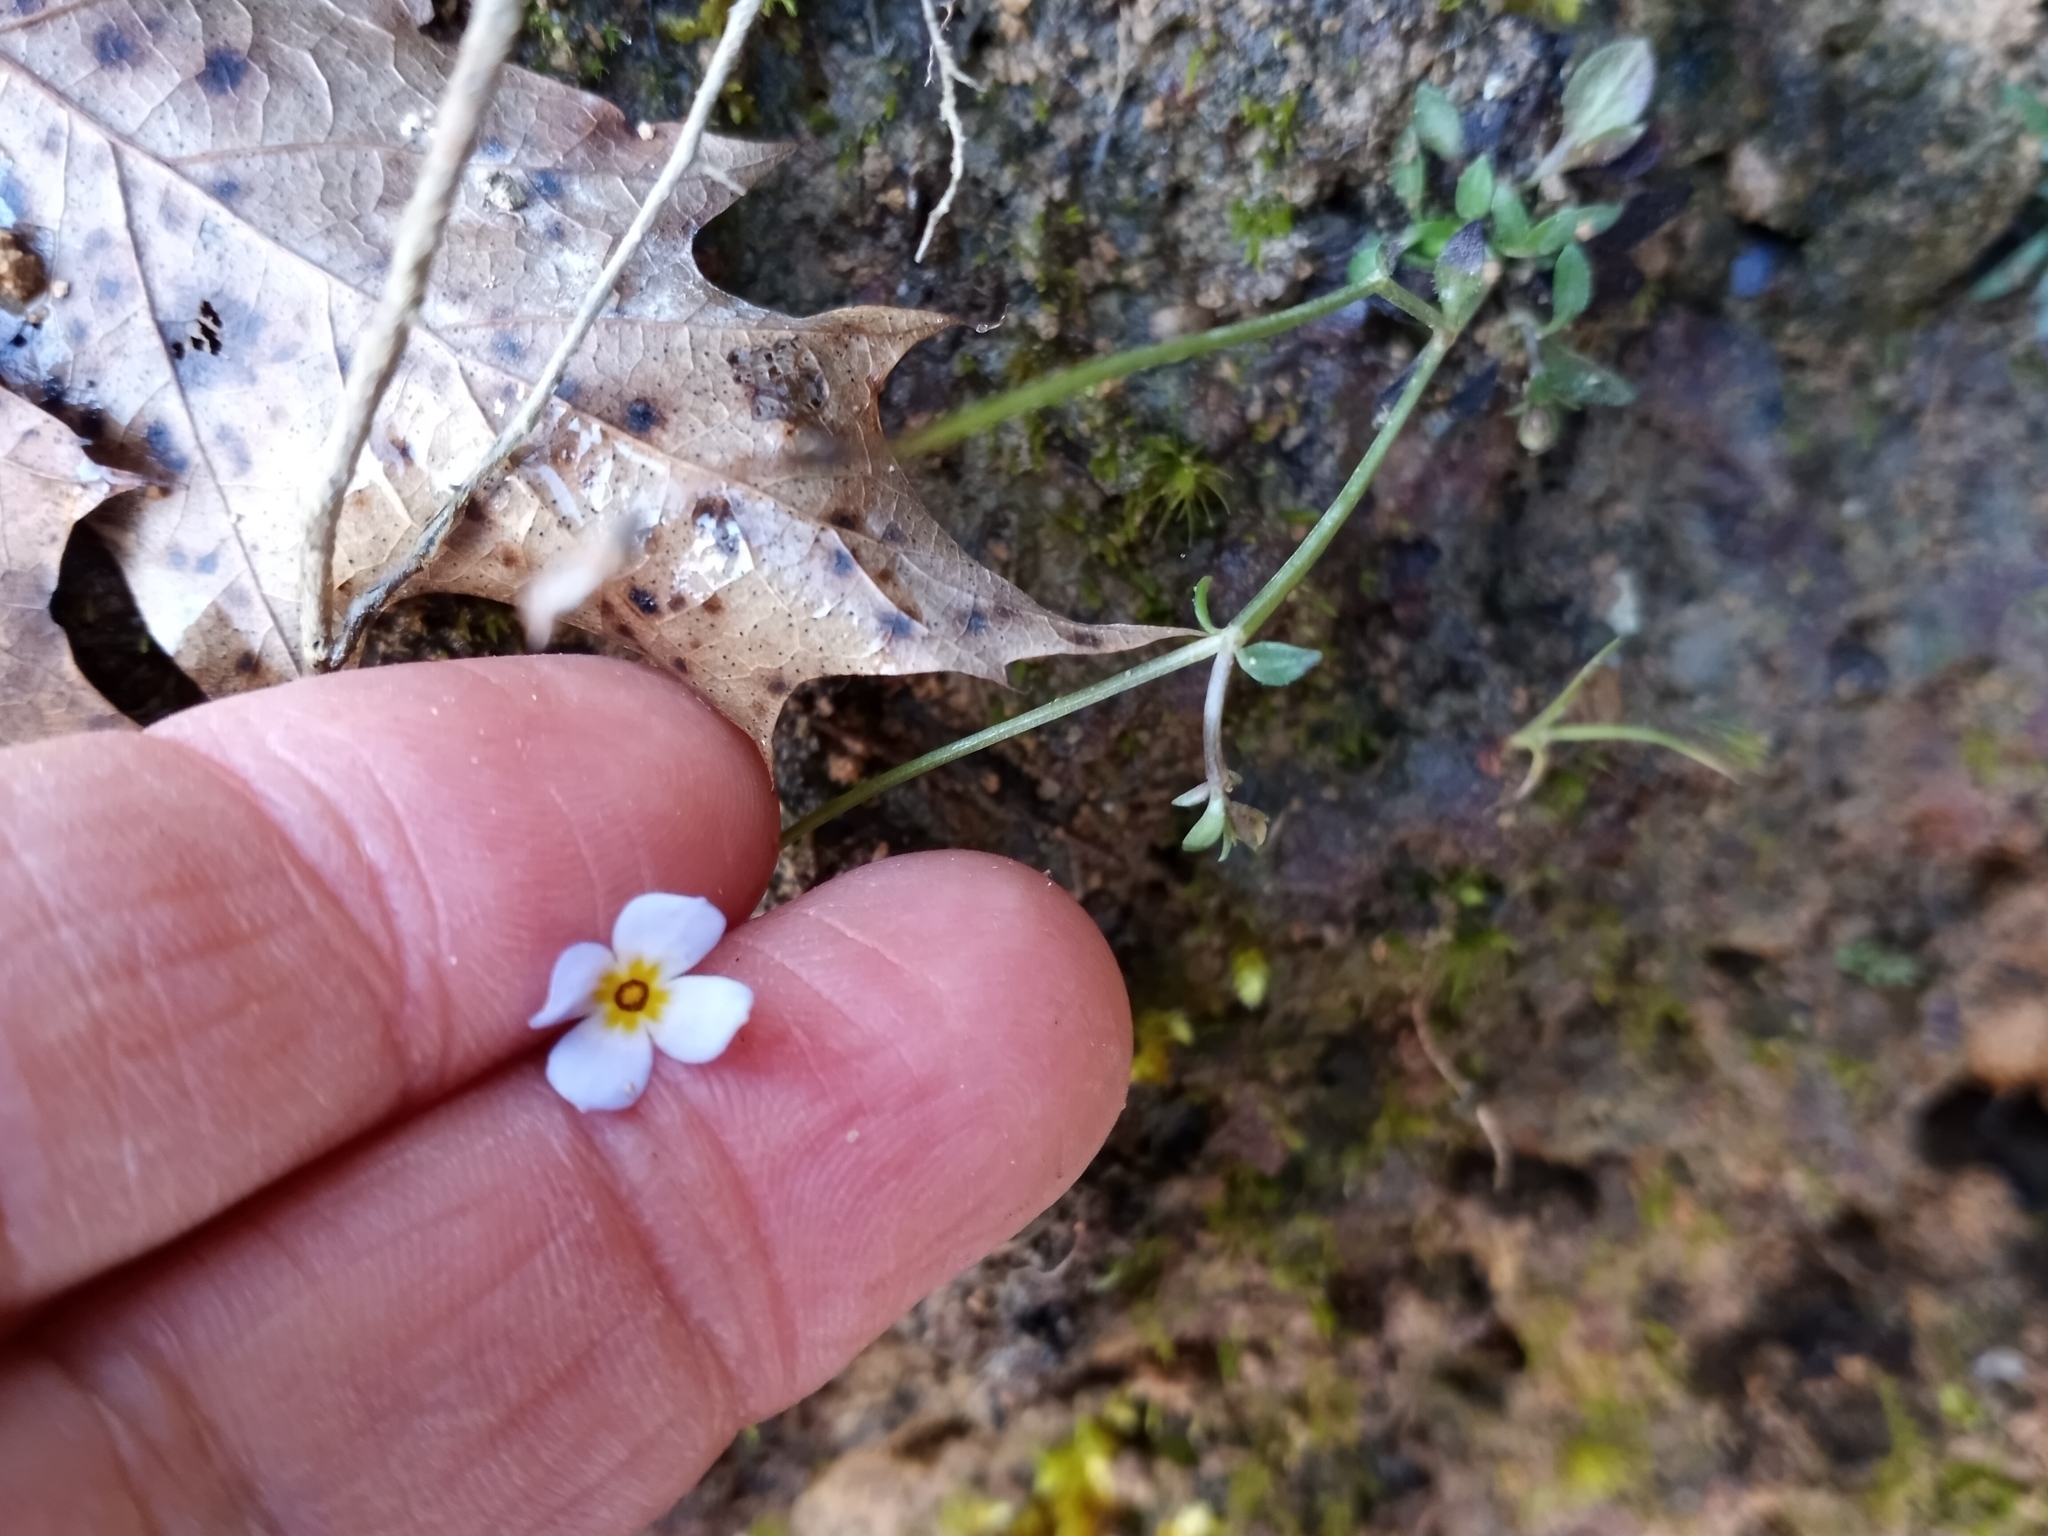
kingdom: Plantae
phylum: Tracheophyta
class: Magnoliopsida
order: Gentianales
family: Rubiaceae
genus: Houstonia
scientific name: Houstonia caerulea
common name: Bluets
